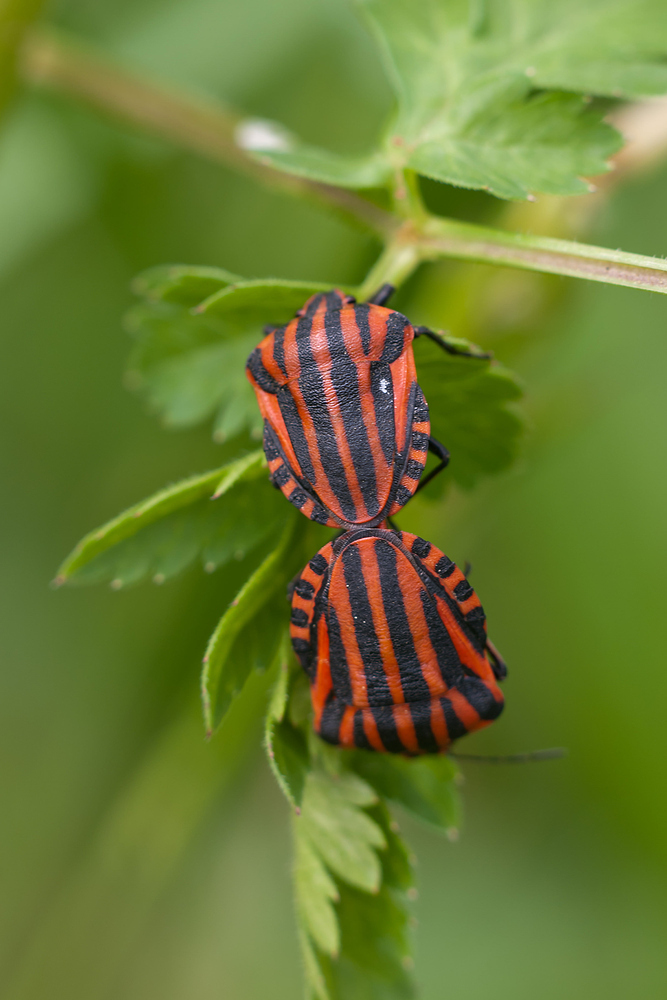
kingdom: Animalia
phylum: Arthropoda
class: Insecta
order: Hemiptera
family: Pentatomidae
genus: Graphosoma
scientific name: Graphosoma italicum
